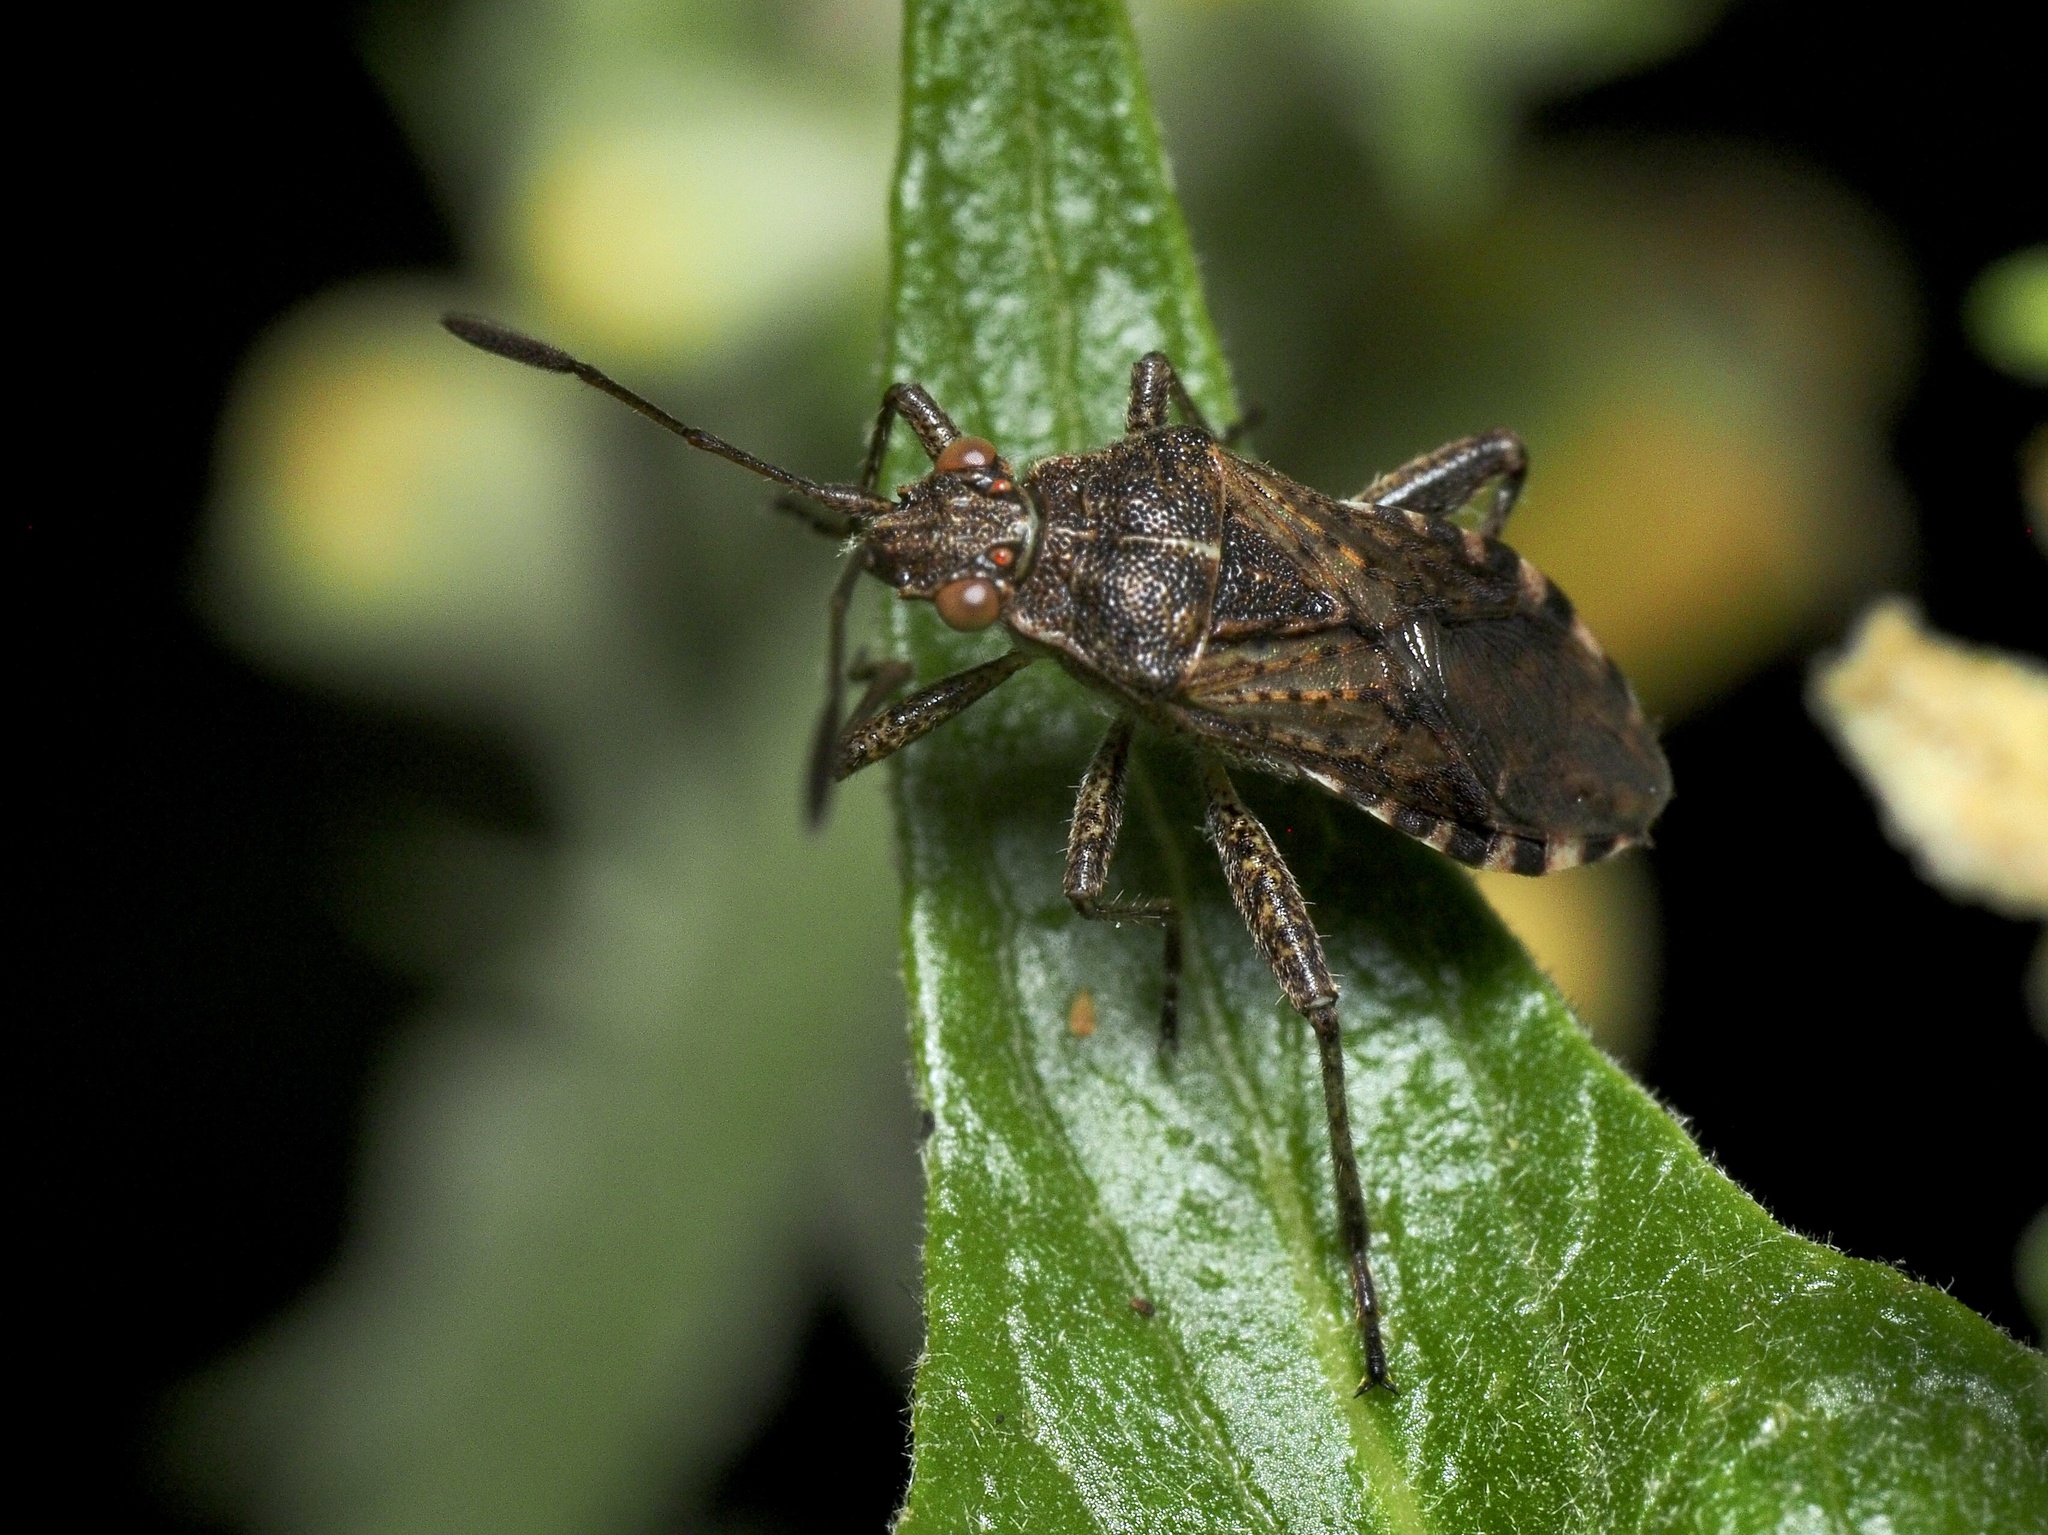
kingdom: Animalia
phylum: Arthropoda
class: Insecta
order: Hemiptera
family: Rhopalidae
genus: Stictopleurus
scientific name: Stictopleurus punctatonervosus
